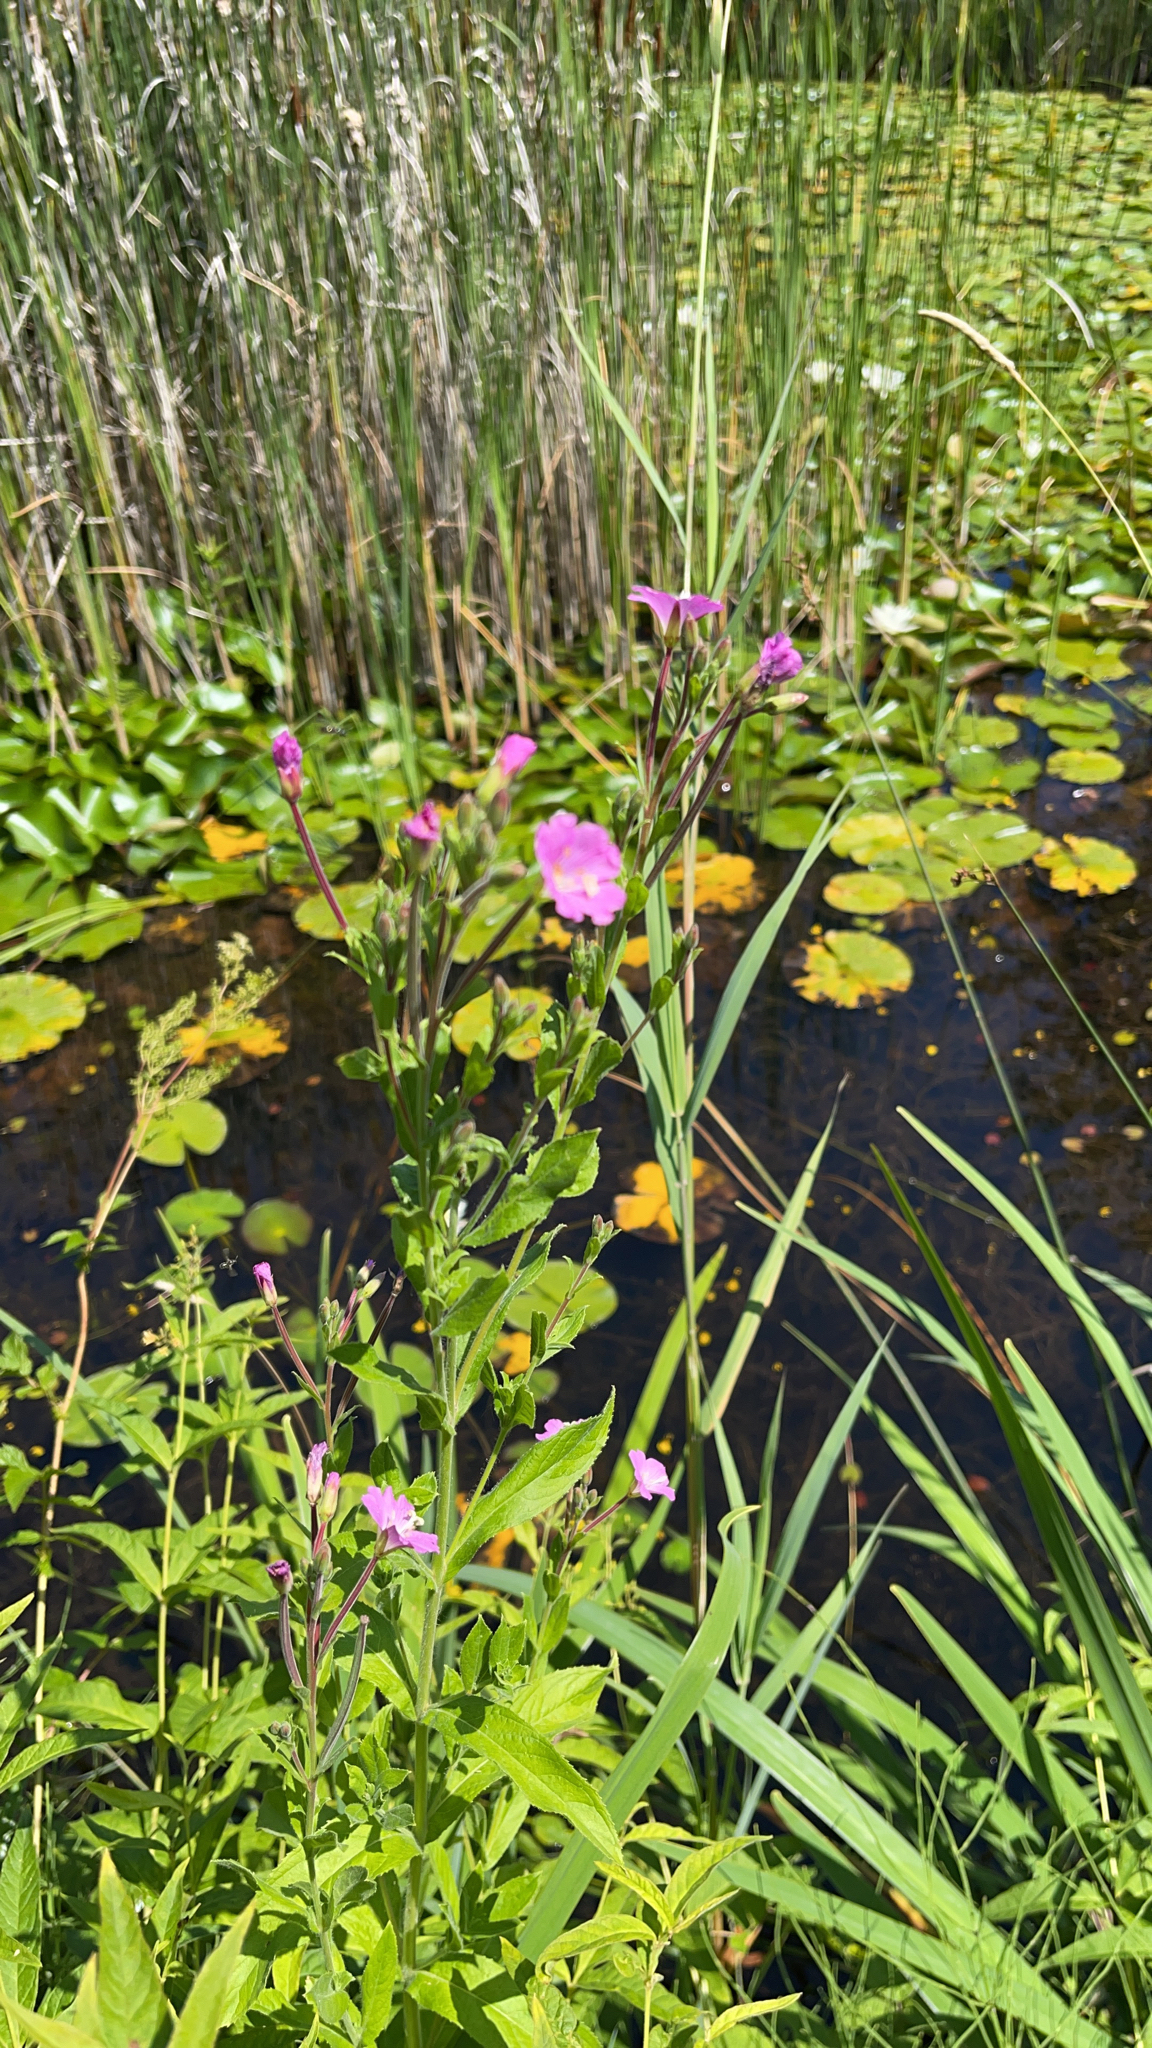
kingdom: Plantae
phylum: Tracheophyta
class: Magnoliopsida
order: Myrtales
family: Onagraceae
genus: Epilobium
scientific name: Epilobium hirsutum
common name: Great willowherb
